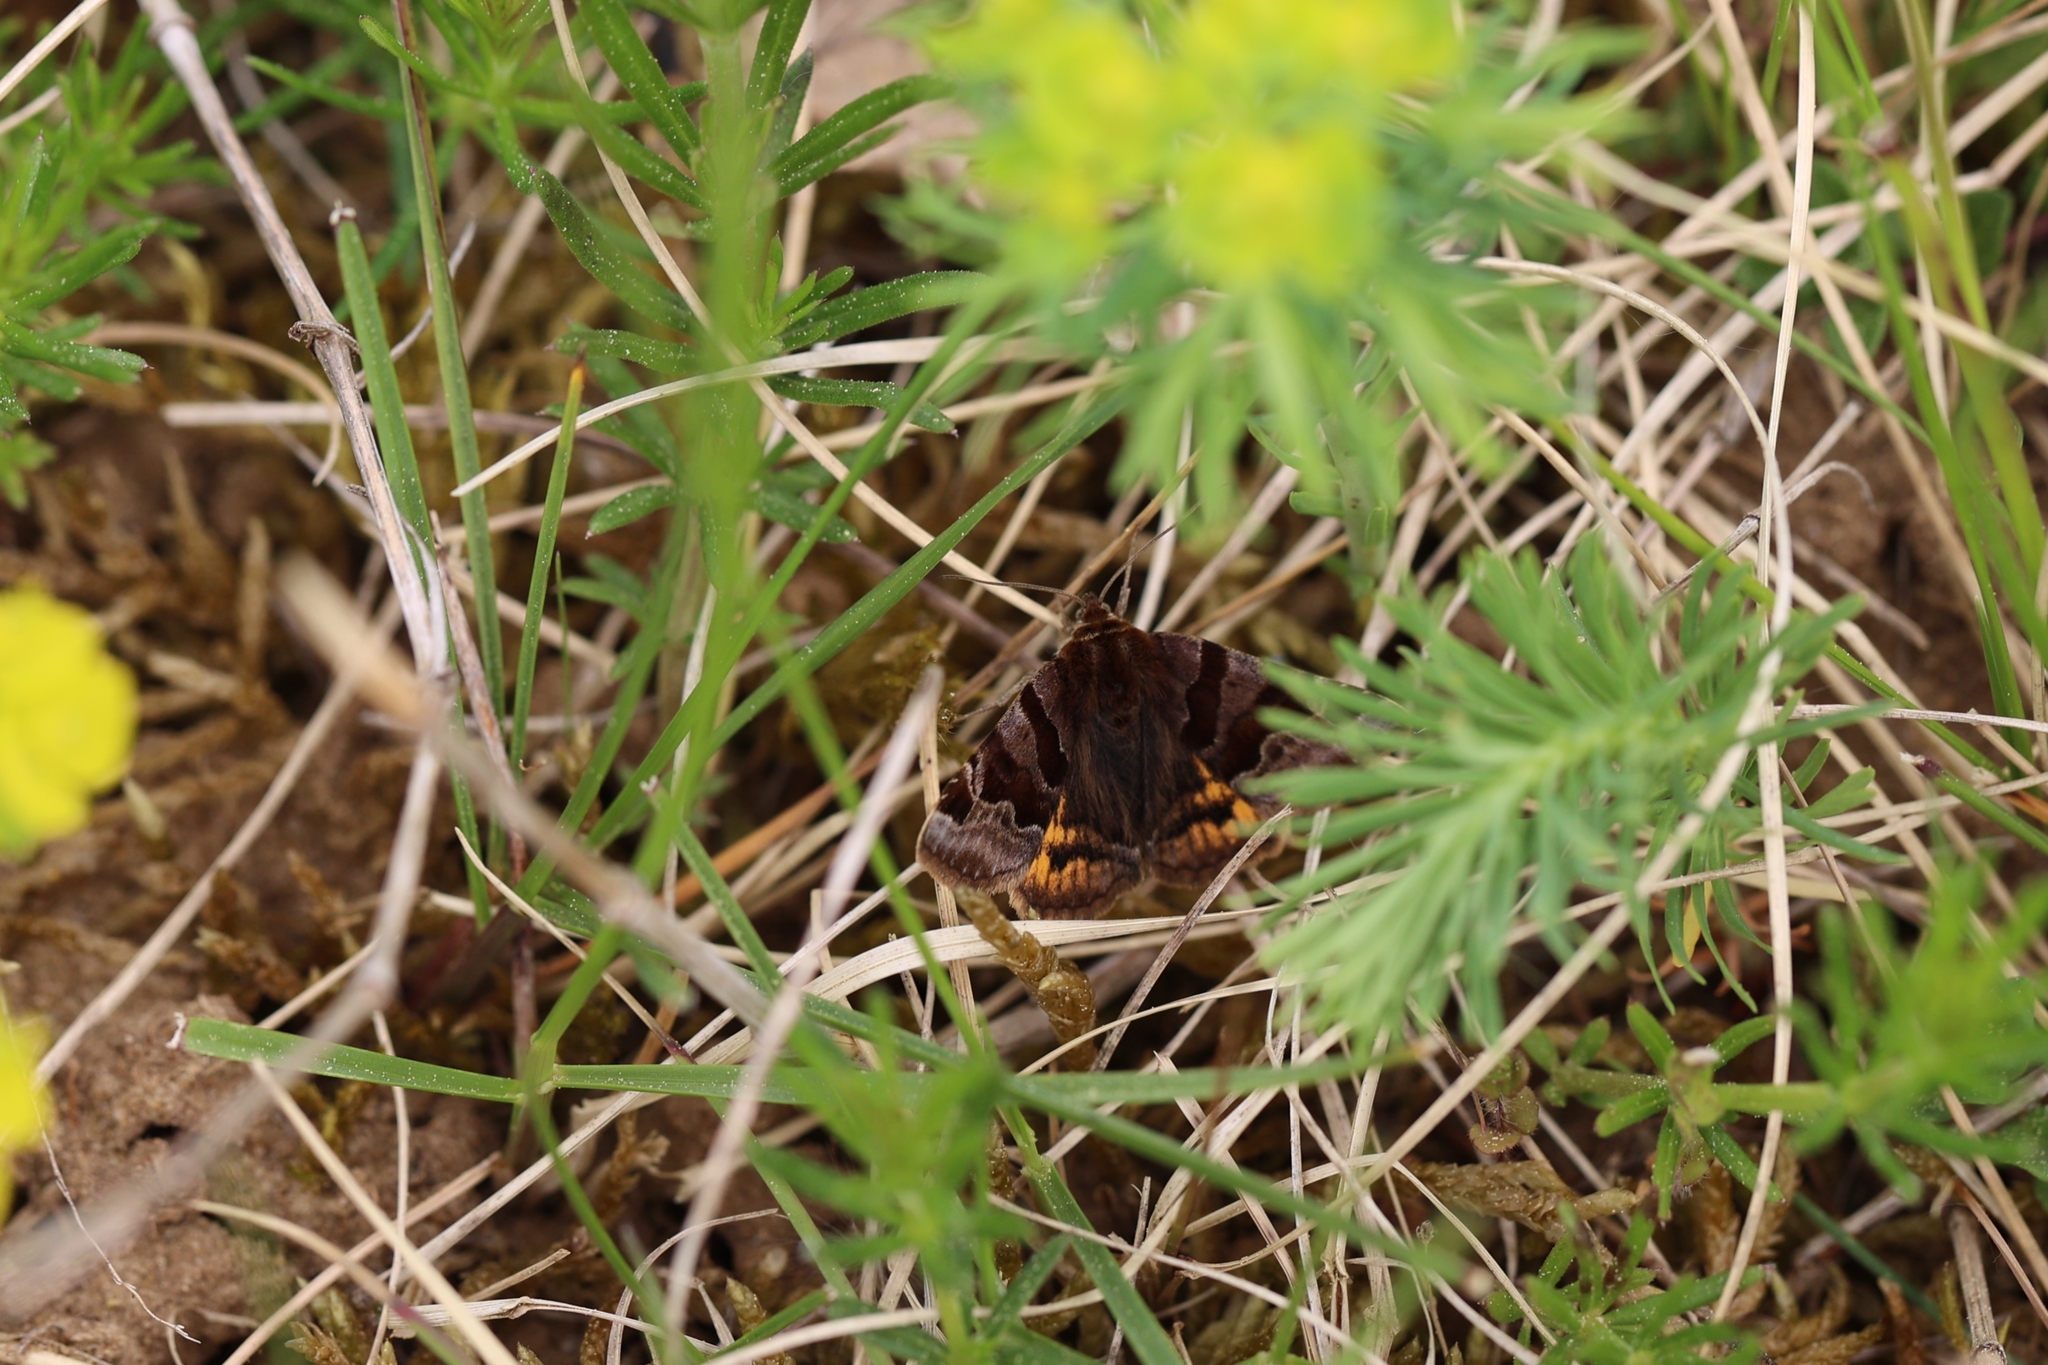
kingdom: Animalia
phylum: Arthropoda
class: Insecta
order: Lepidoptera
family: Erebidae
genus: Euclidia
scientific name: Euclidia glyphica
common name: Burnet companion
